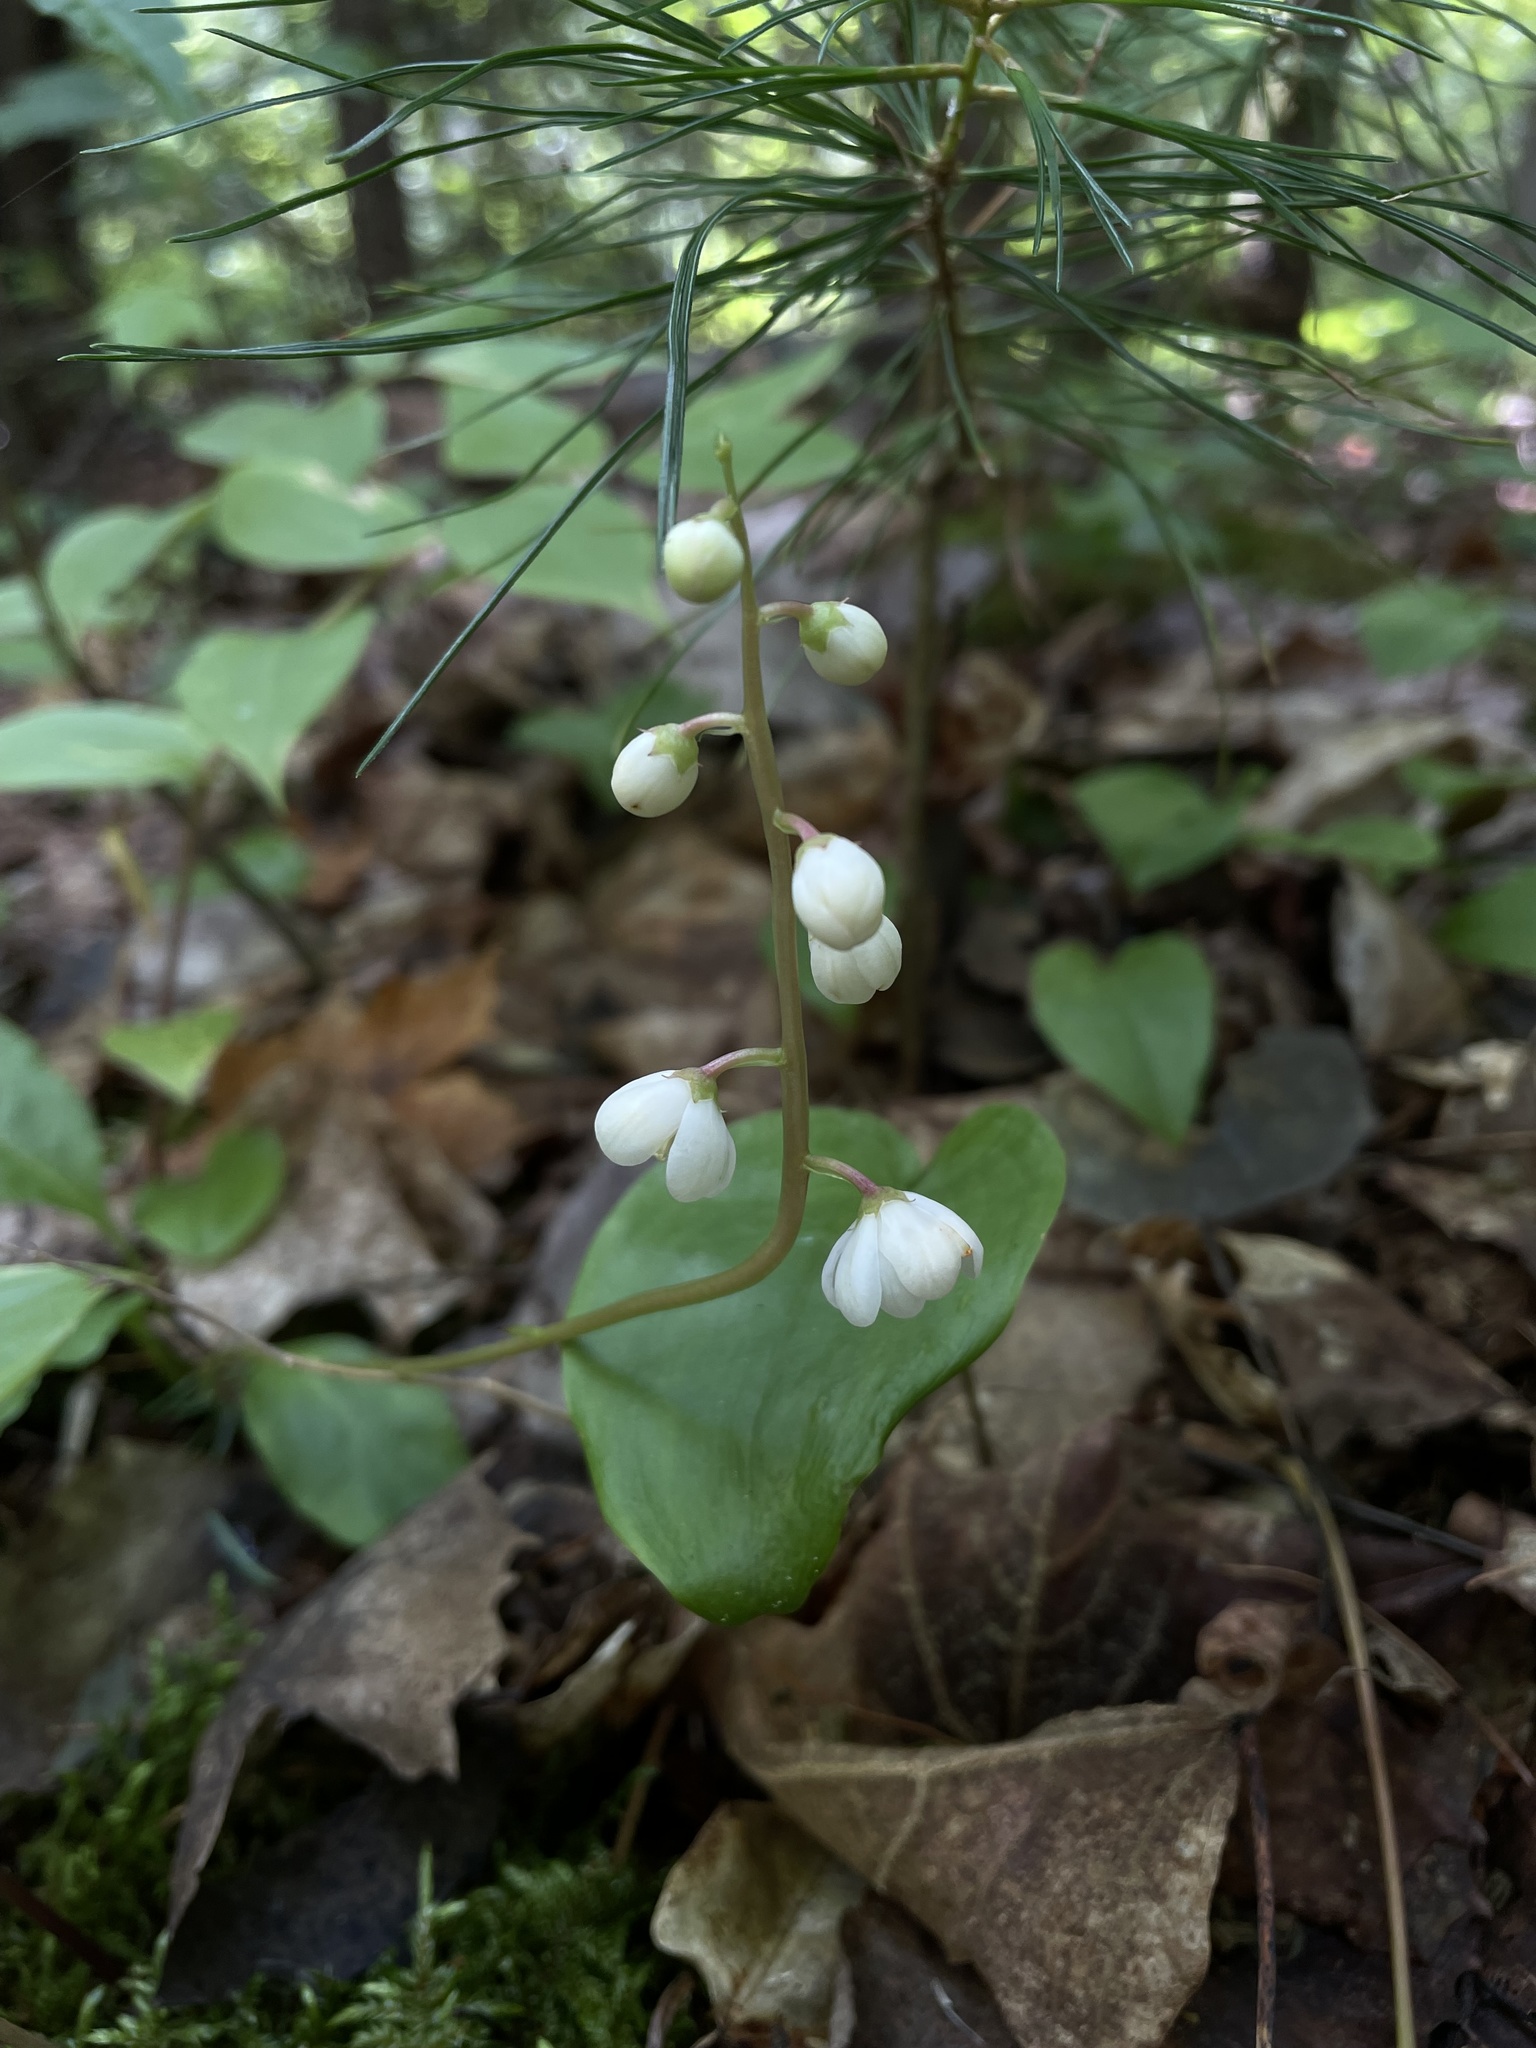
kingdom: Plantae
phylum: Tracheophyta
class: Magnoliopsida
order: Ericales
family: Ericaceae
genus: Pyrola
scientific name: Pyrola elliptica
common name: Shinleaf
